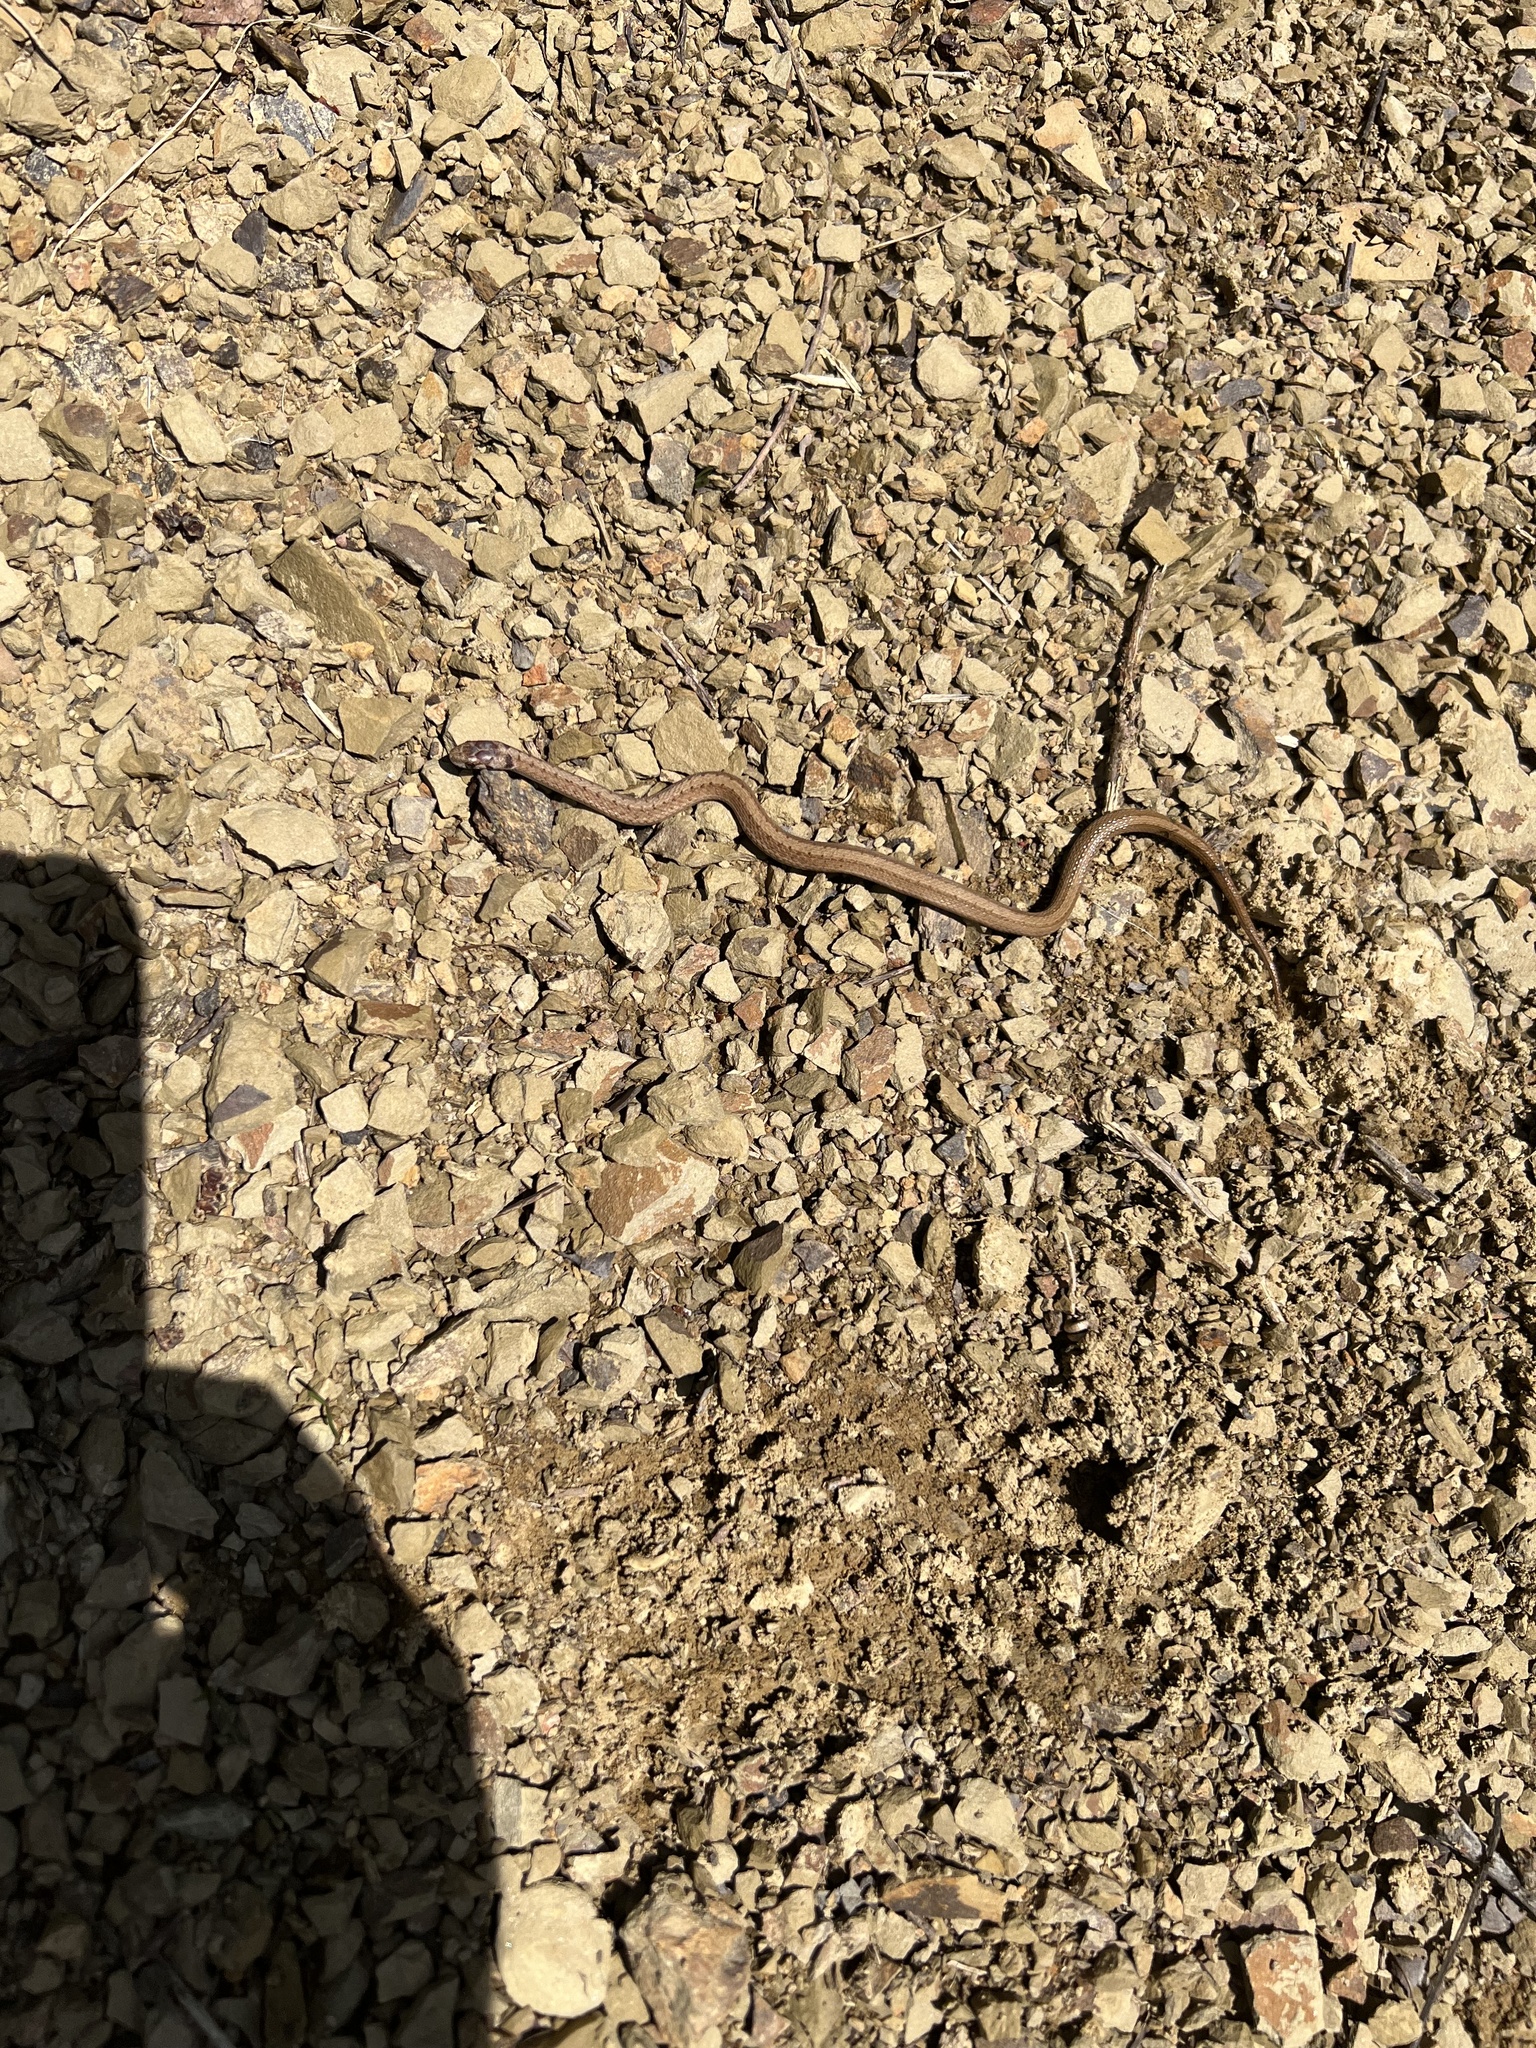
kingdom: Animalia
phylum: Chordata
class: Squamata
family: Colubridae
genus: Storeria
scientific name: Storeria dekayi
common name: (dekay’s) brown snake
